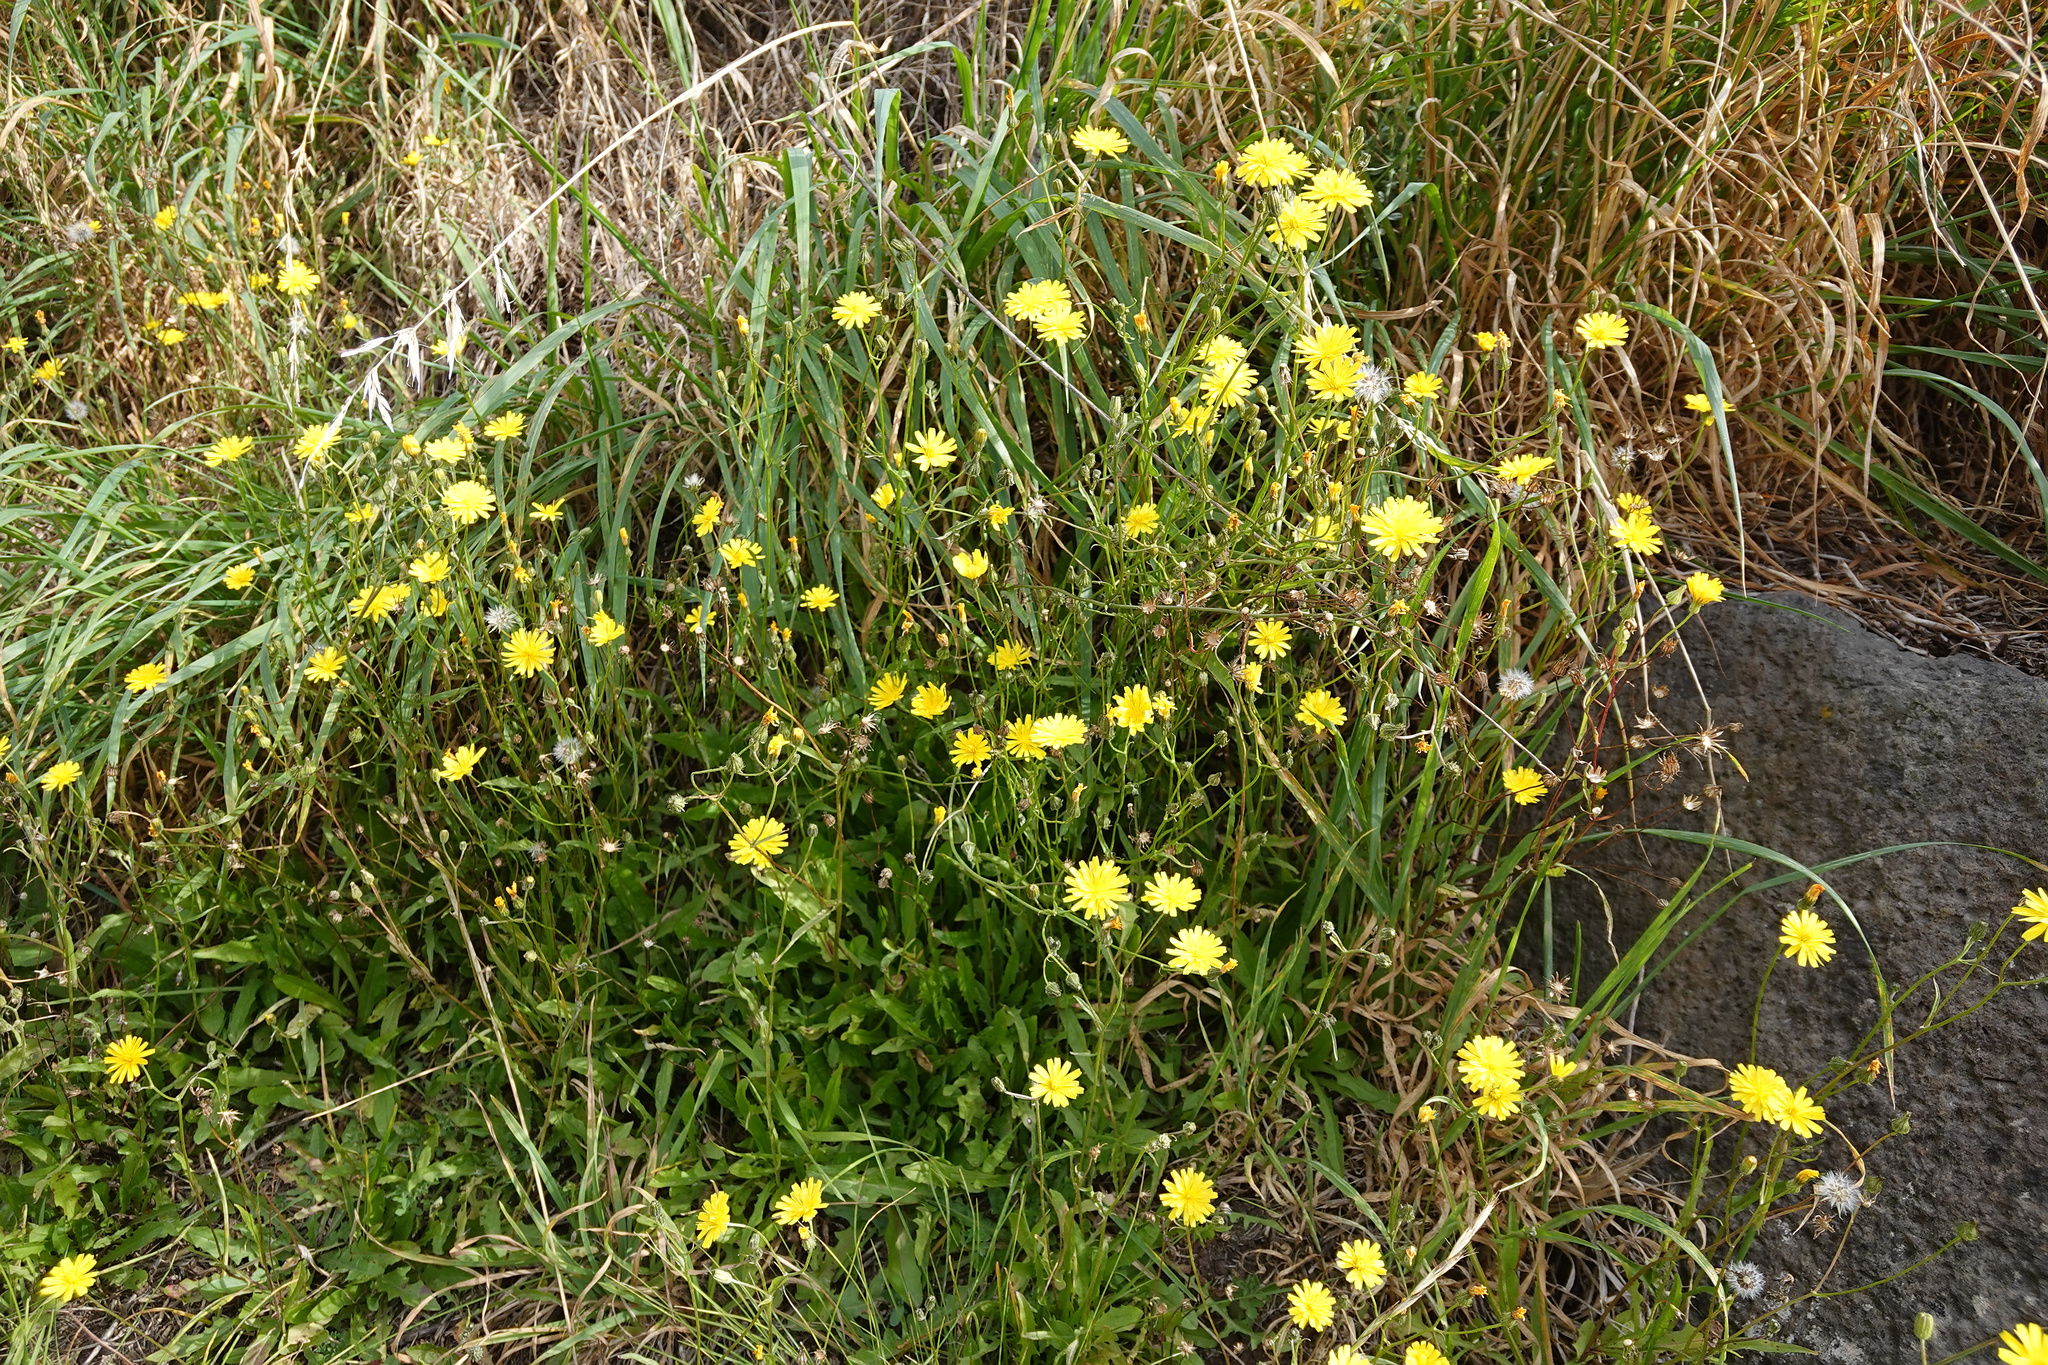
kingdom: Plantae
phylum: Tracheophyta
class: Magnoliopsida
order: Asterales
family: Asteraceae
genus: Crepis
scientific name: Crepis capillaris
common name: Smooth hawksbeard
